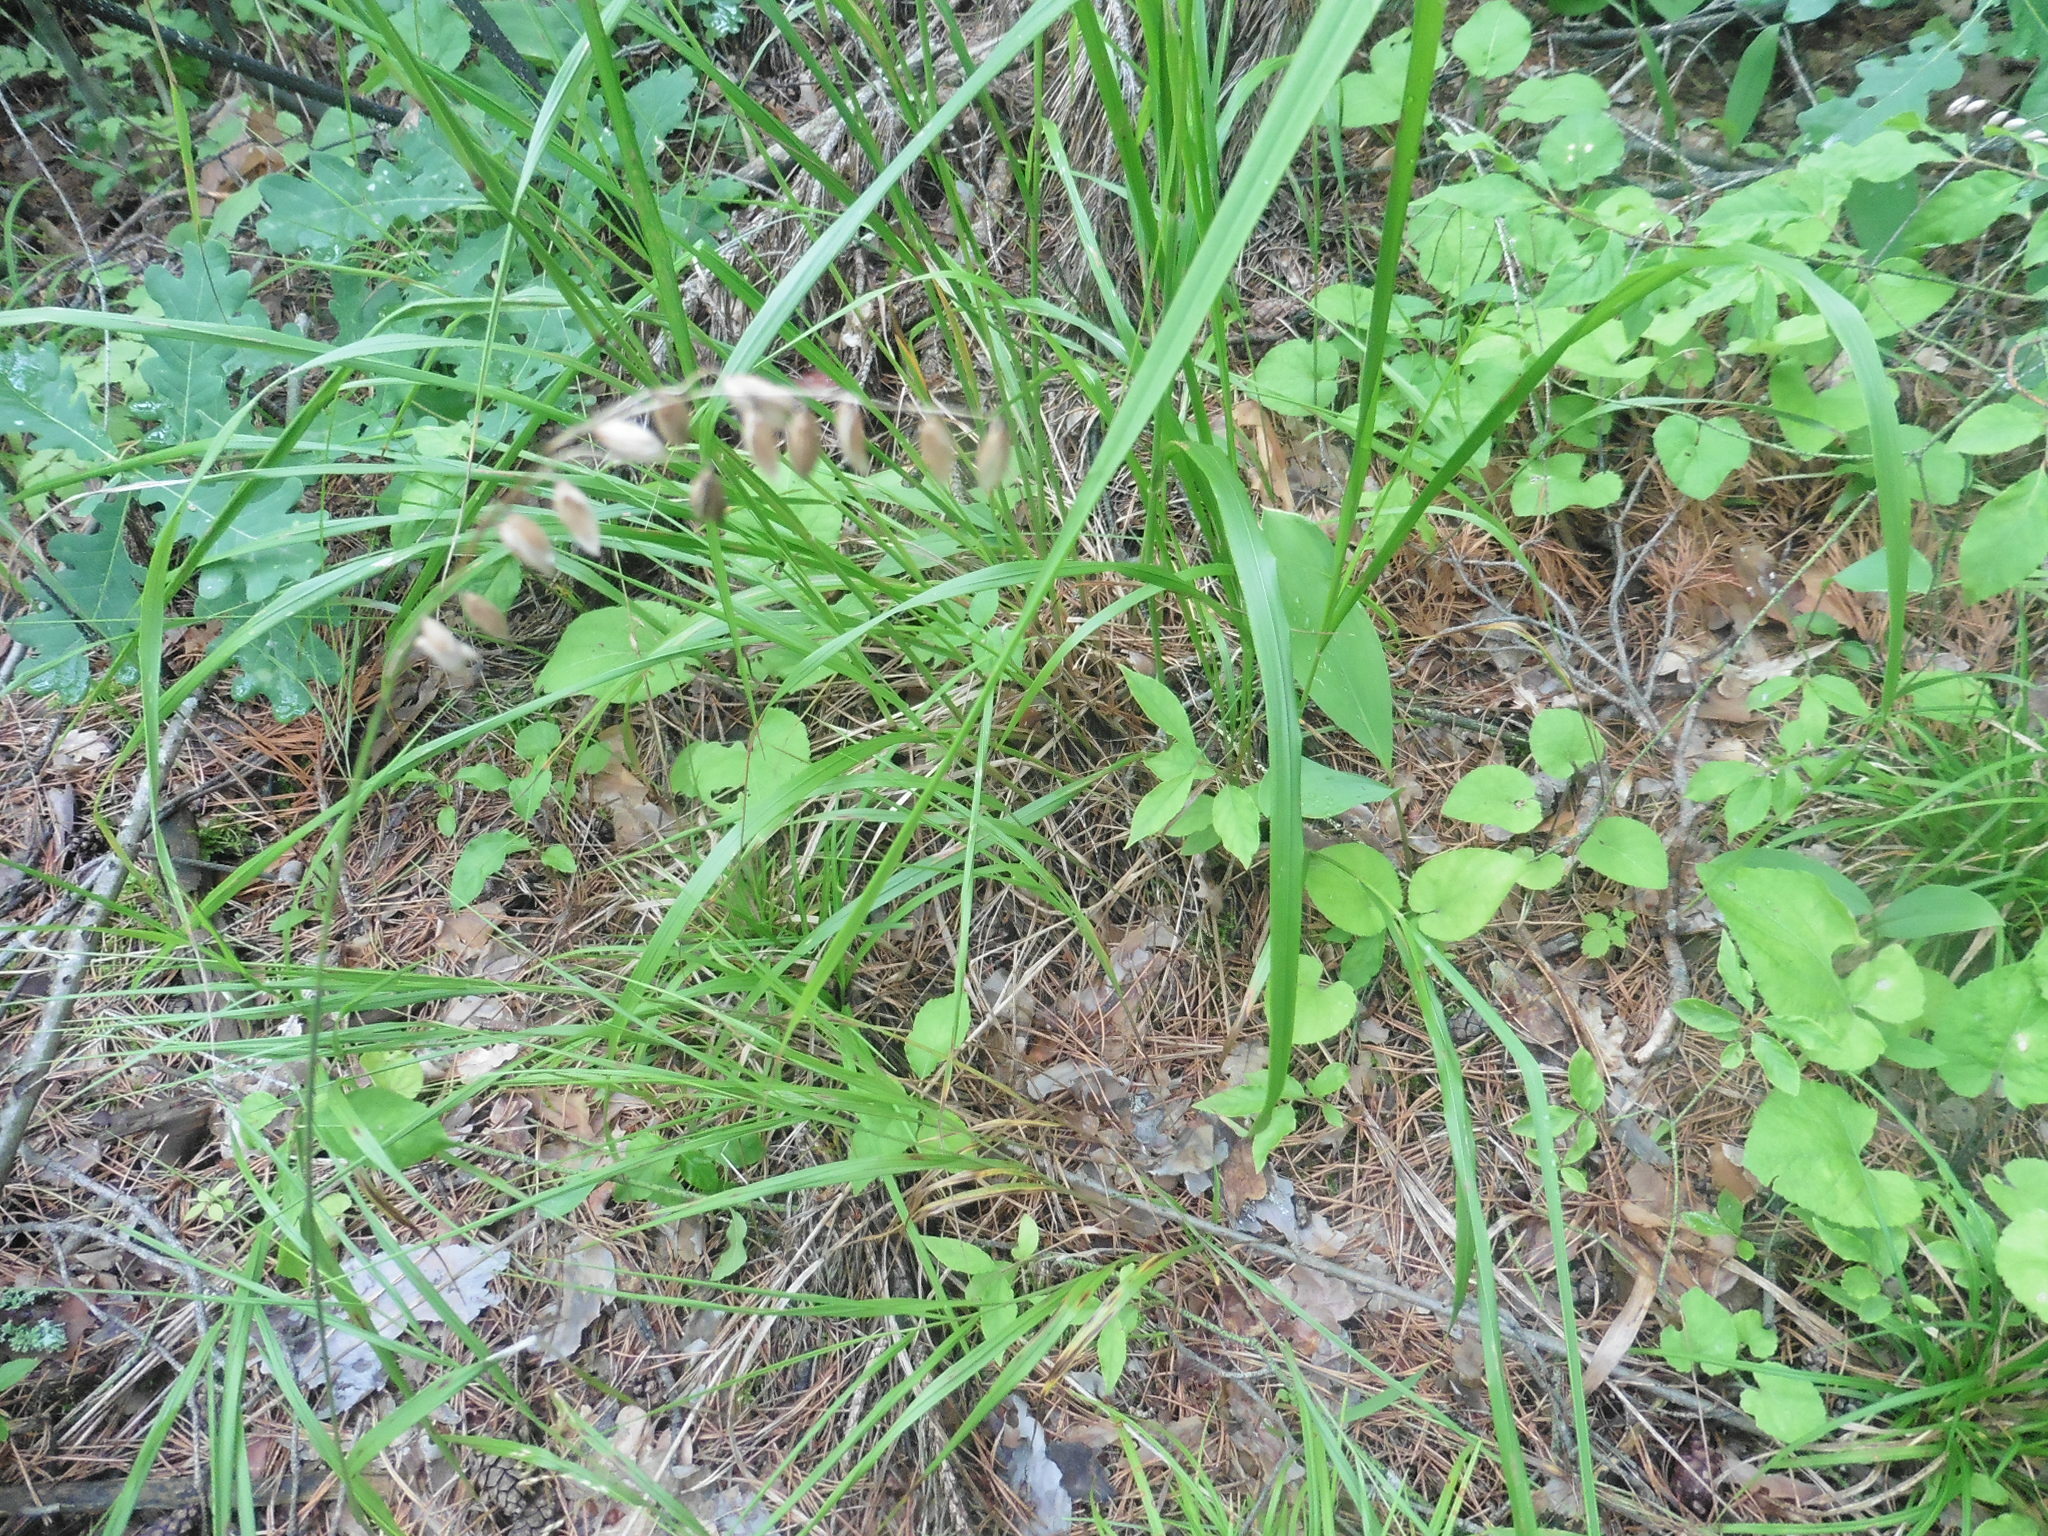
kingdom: Plantae
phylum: Tracheophyta
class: Liliopsida
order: Poales
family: Poaceae
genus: Calamagrostis
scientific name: Calamagrostis arundinacea
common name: Metskastik
